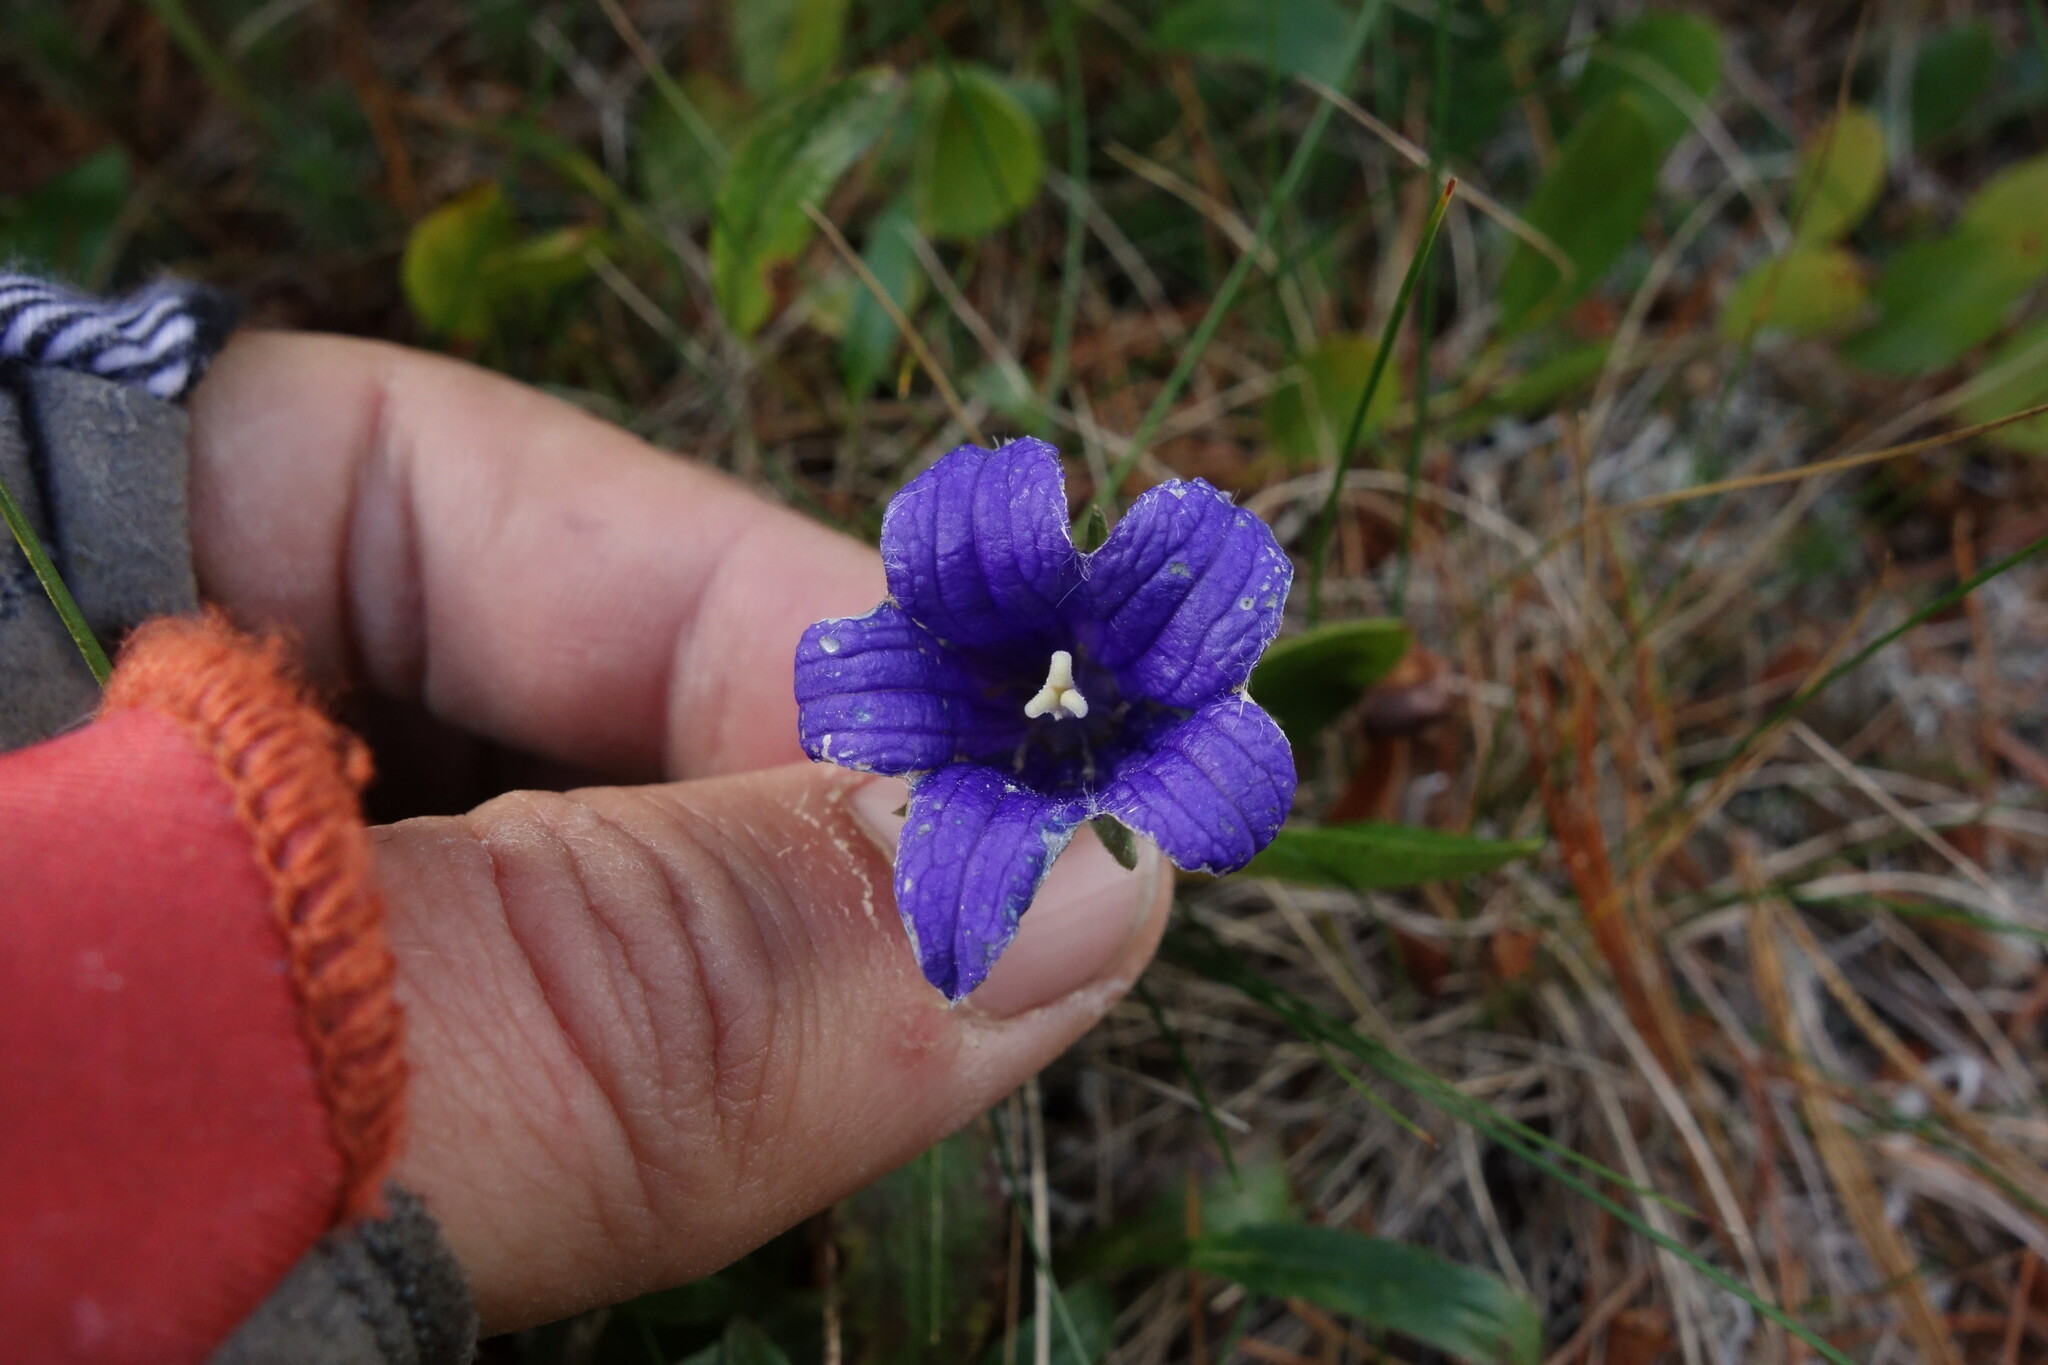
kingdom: Plantae
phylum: Tracheophyta
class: Magnoliopsida
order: Asterales
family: Campanulaceae
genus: Campanula
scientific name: Campanula dasyantha
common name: Hairyflower bellflower
